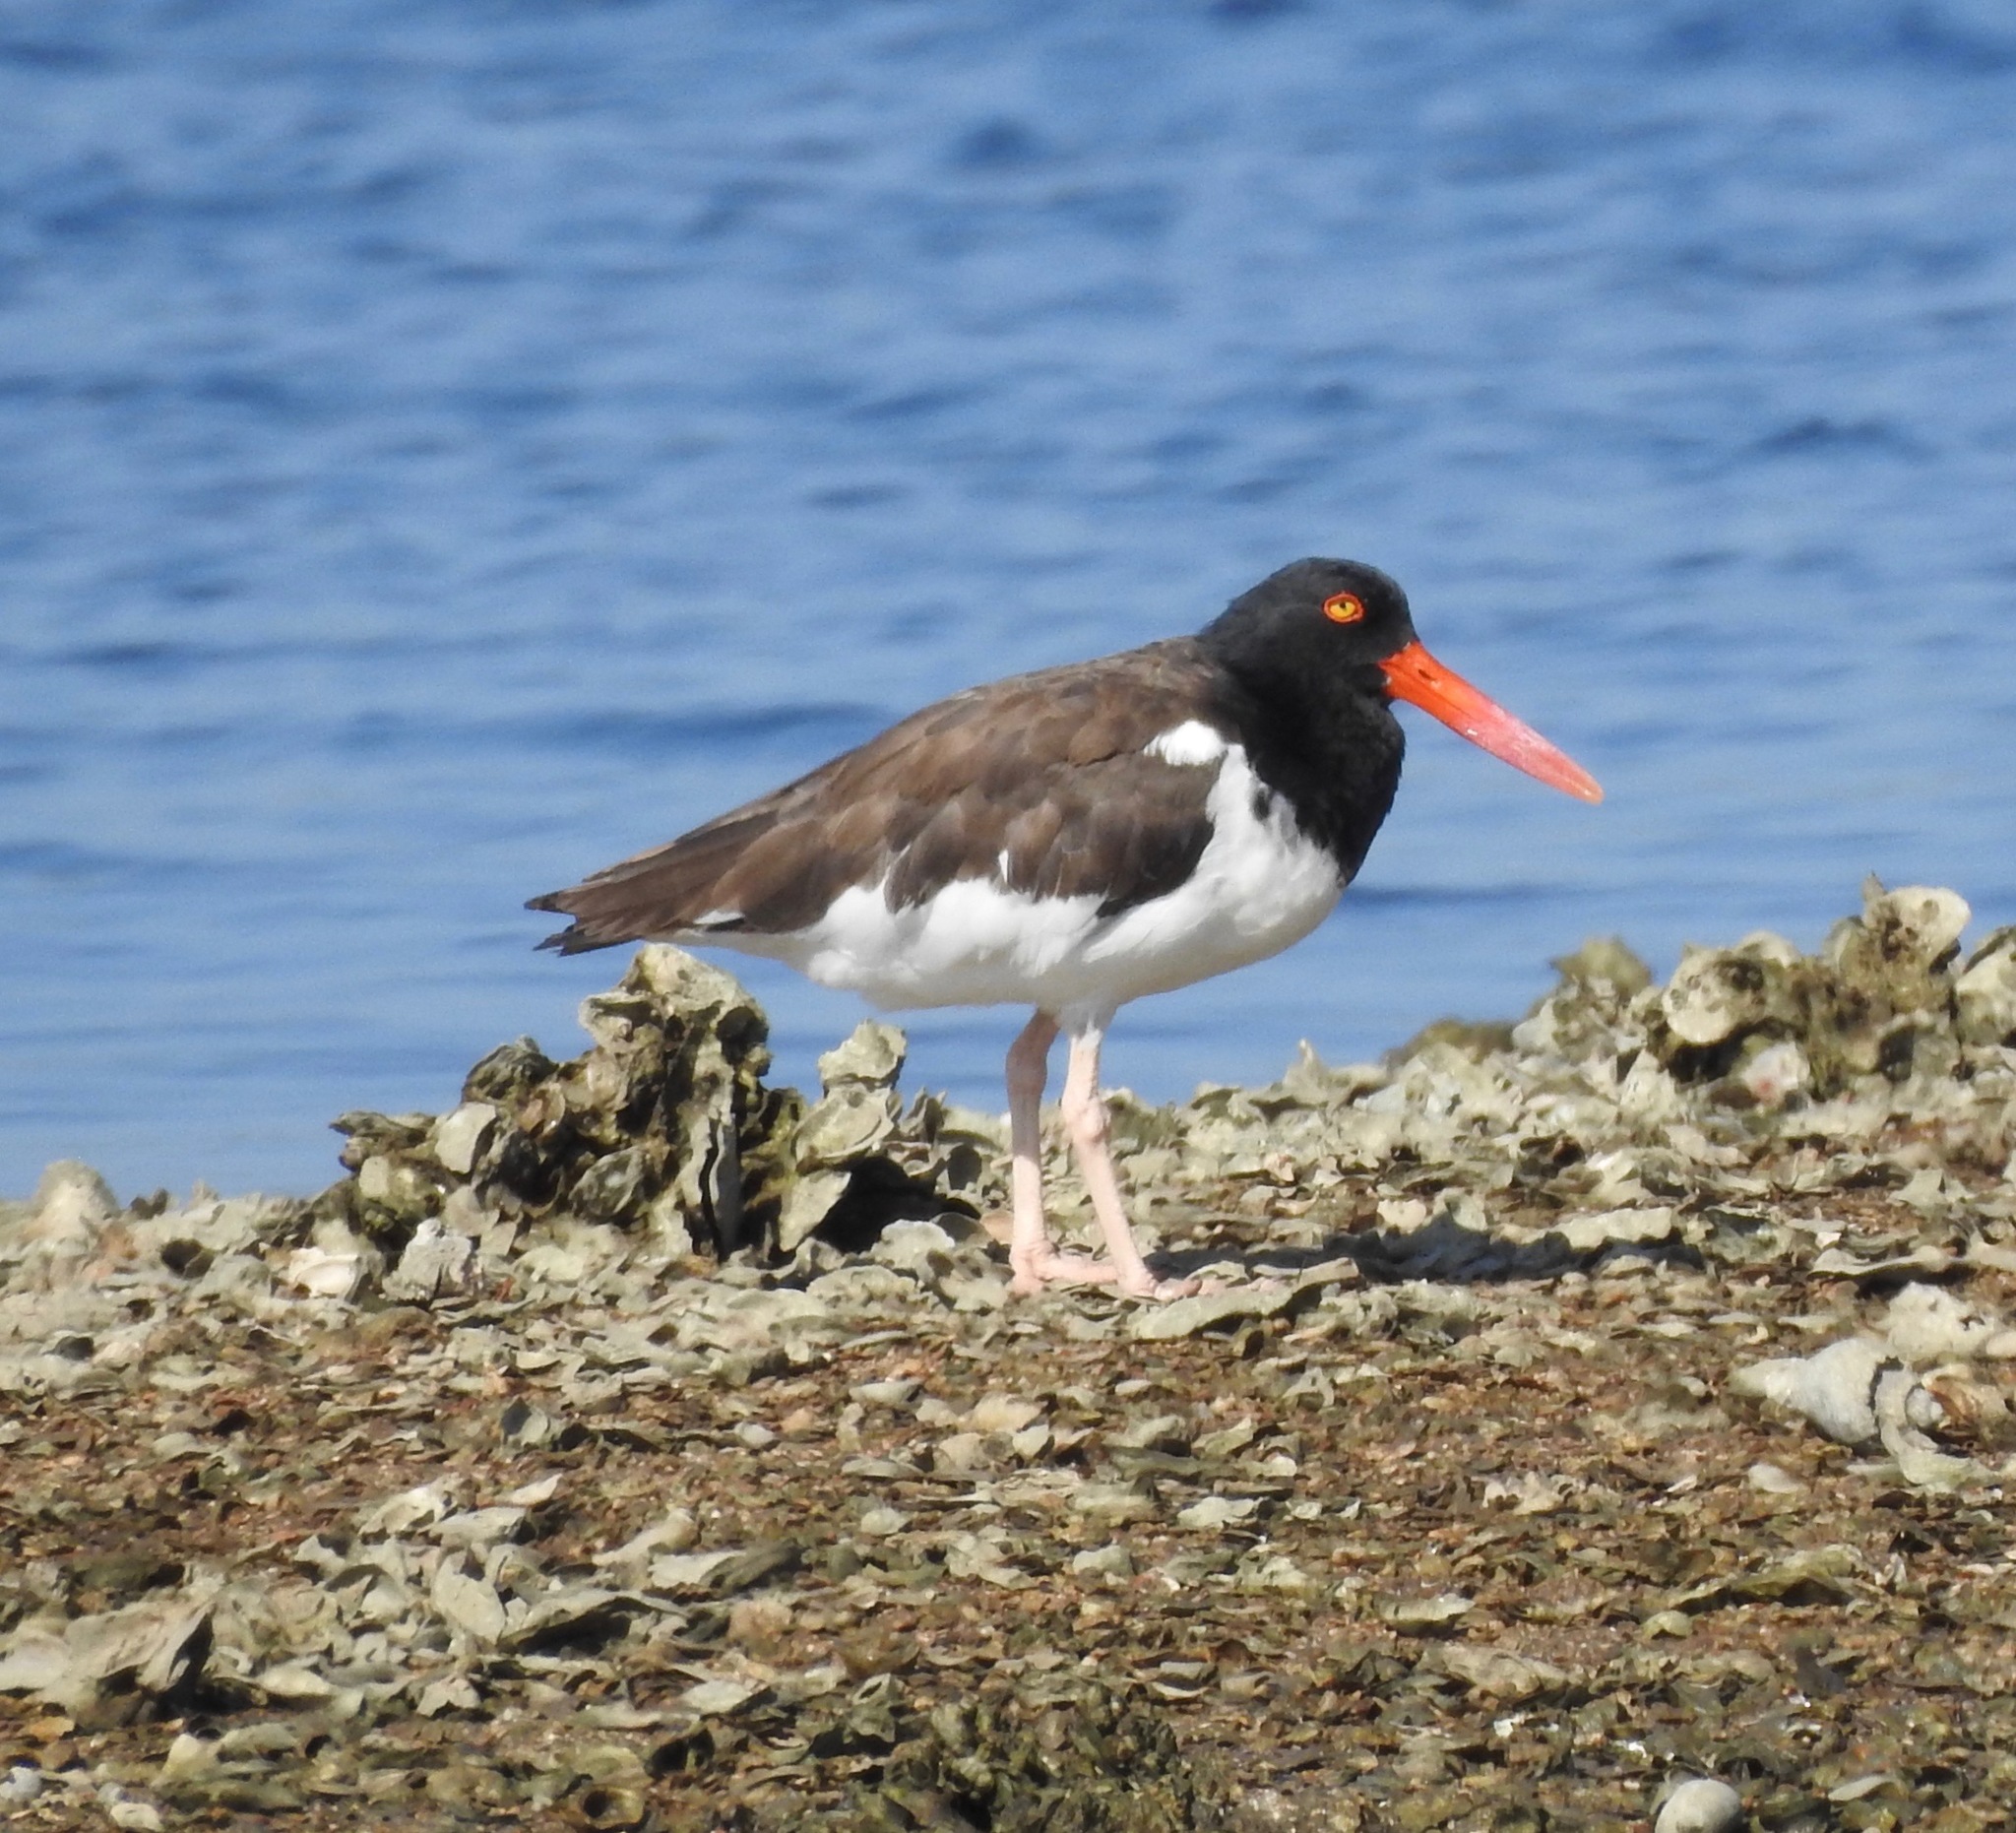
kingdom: Animalia
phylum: Chordata
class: Aves
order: Charadriiformes
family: Haematopodidae
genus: Haematopus
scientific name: Haematopus palliatus
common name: American oystercatcher
